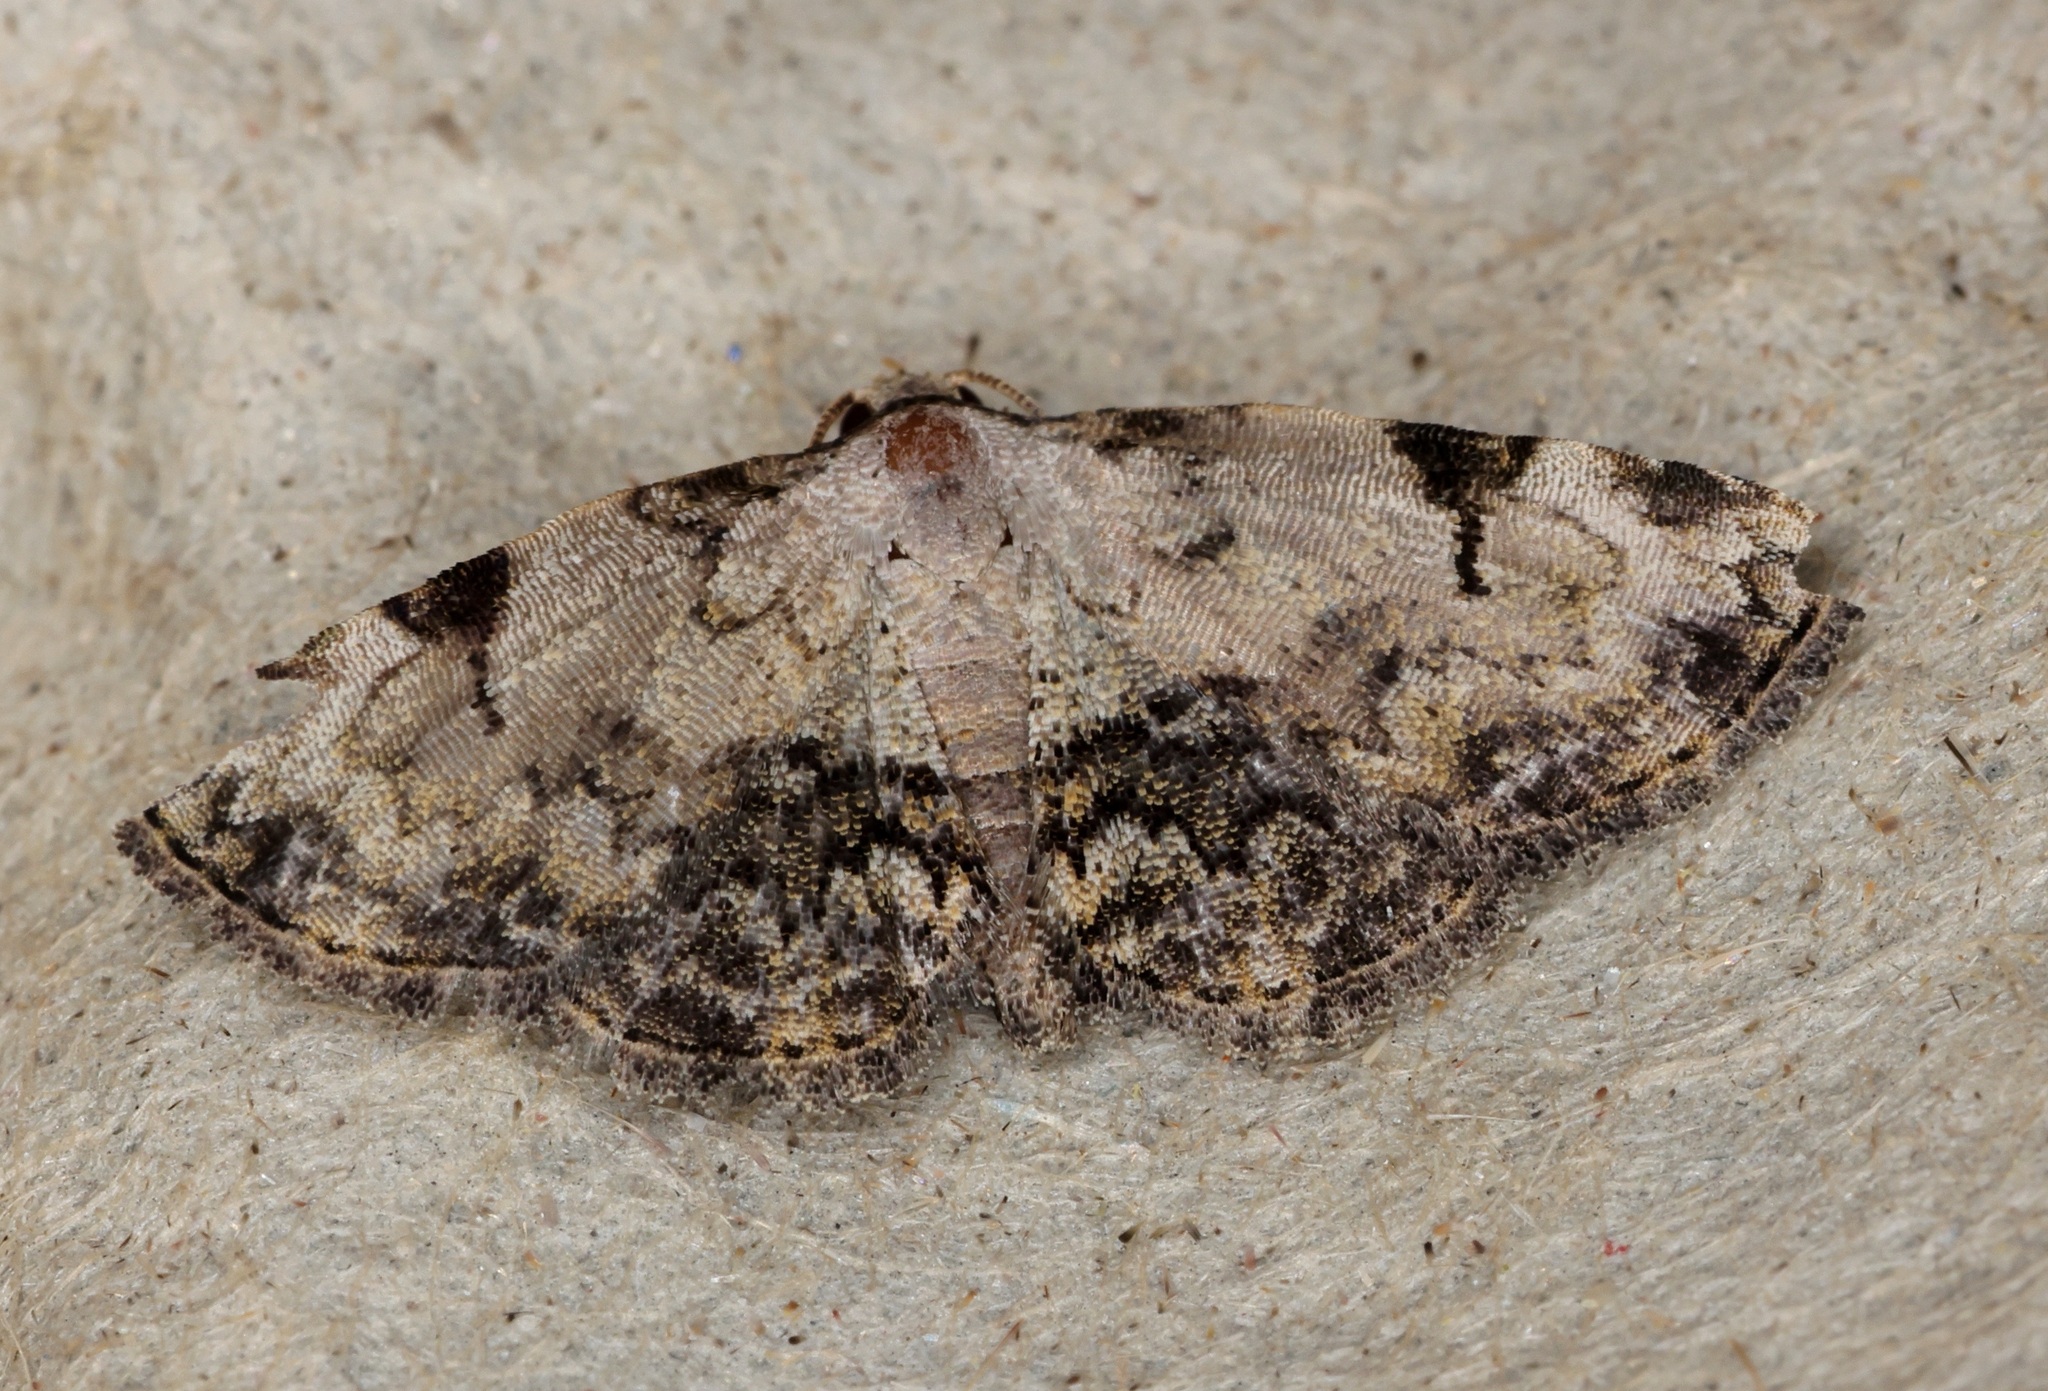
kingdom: Animalia
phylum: Arthropoda
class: Insecta
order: Lepidoptera
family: Noctuidae
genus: Mataeomera
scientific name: Mataeomera semialba
